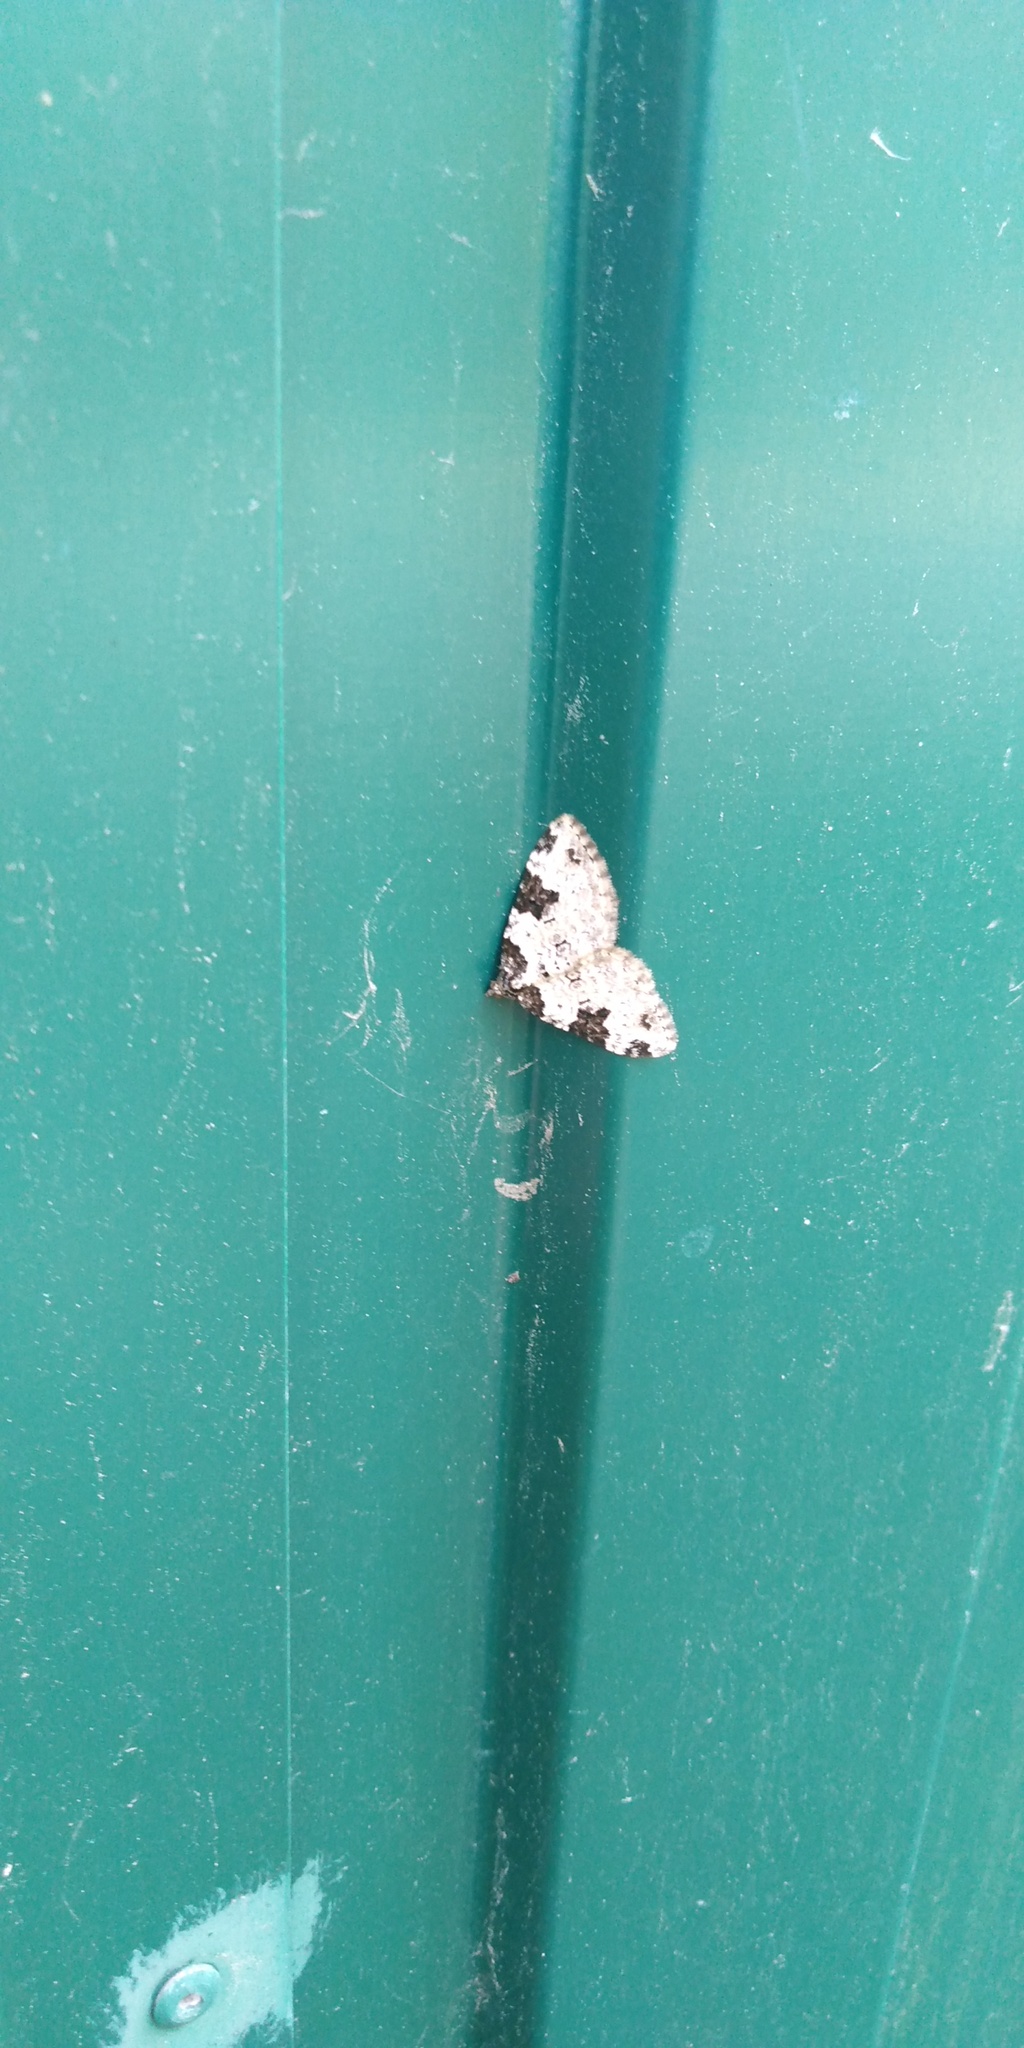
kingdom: Animalia
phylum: Arthropoda
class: Insecta
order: Lepidoptera
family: Geometridae
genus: Xanthorhoe
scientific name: Xanthorhoe fluctuata
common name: Garden carpet
